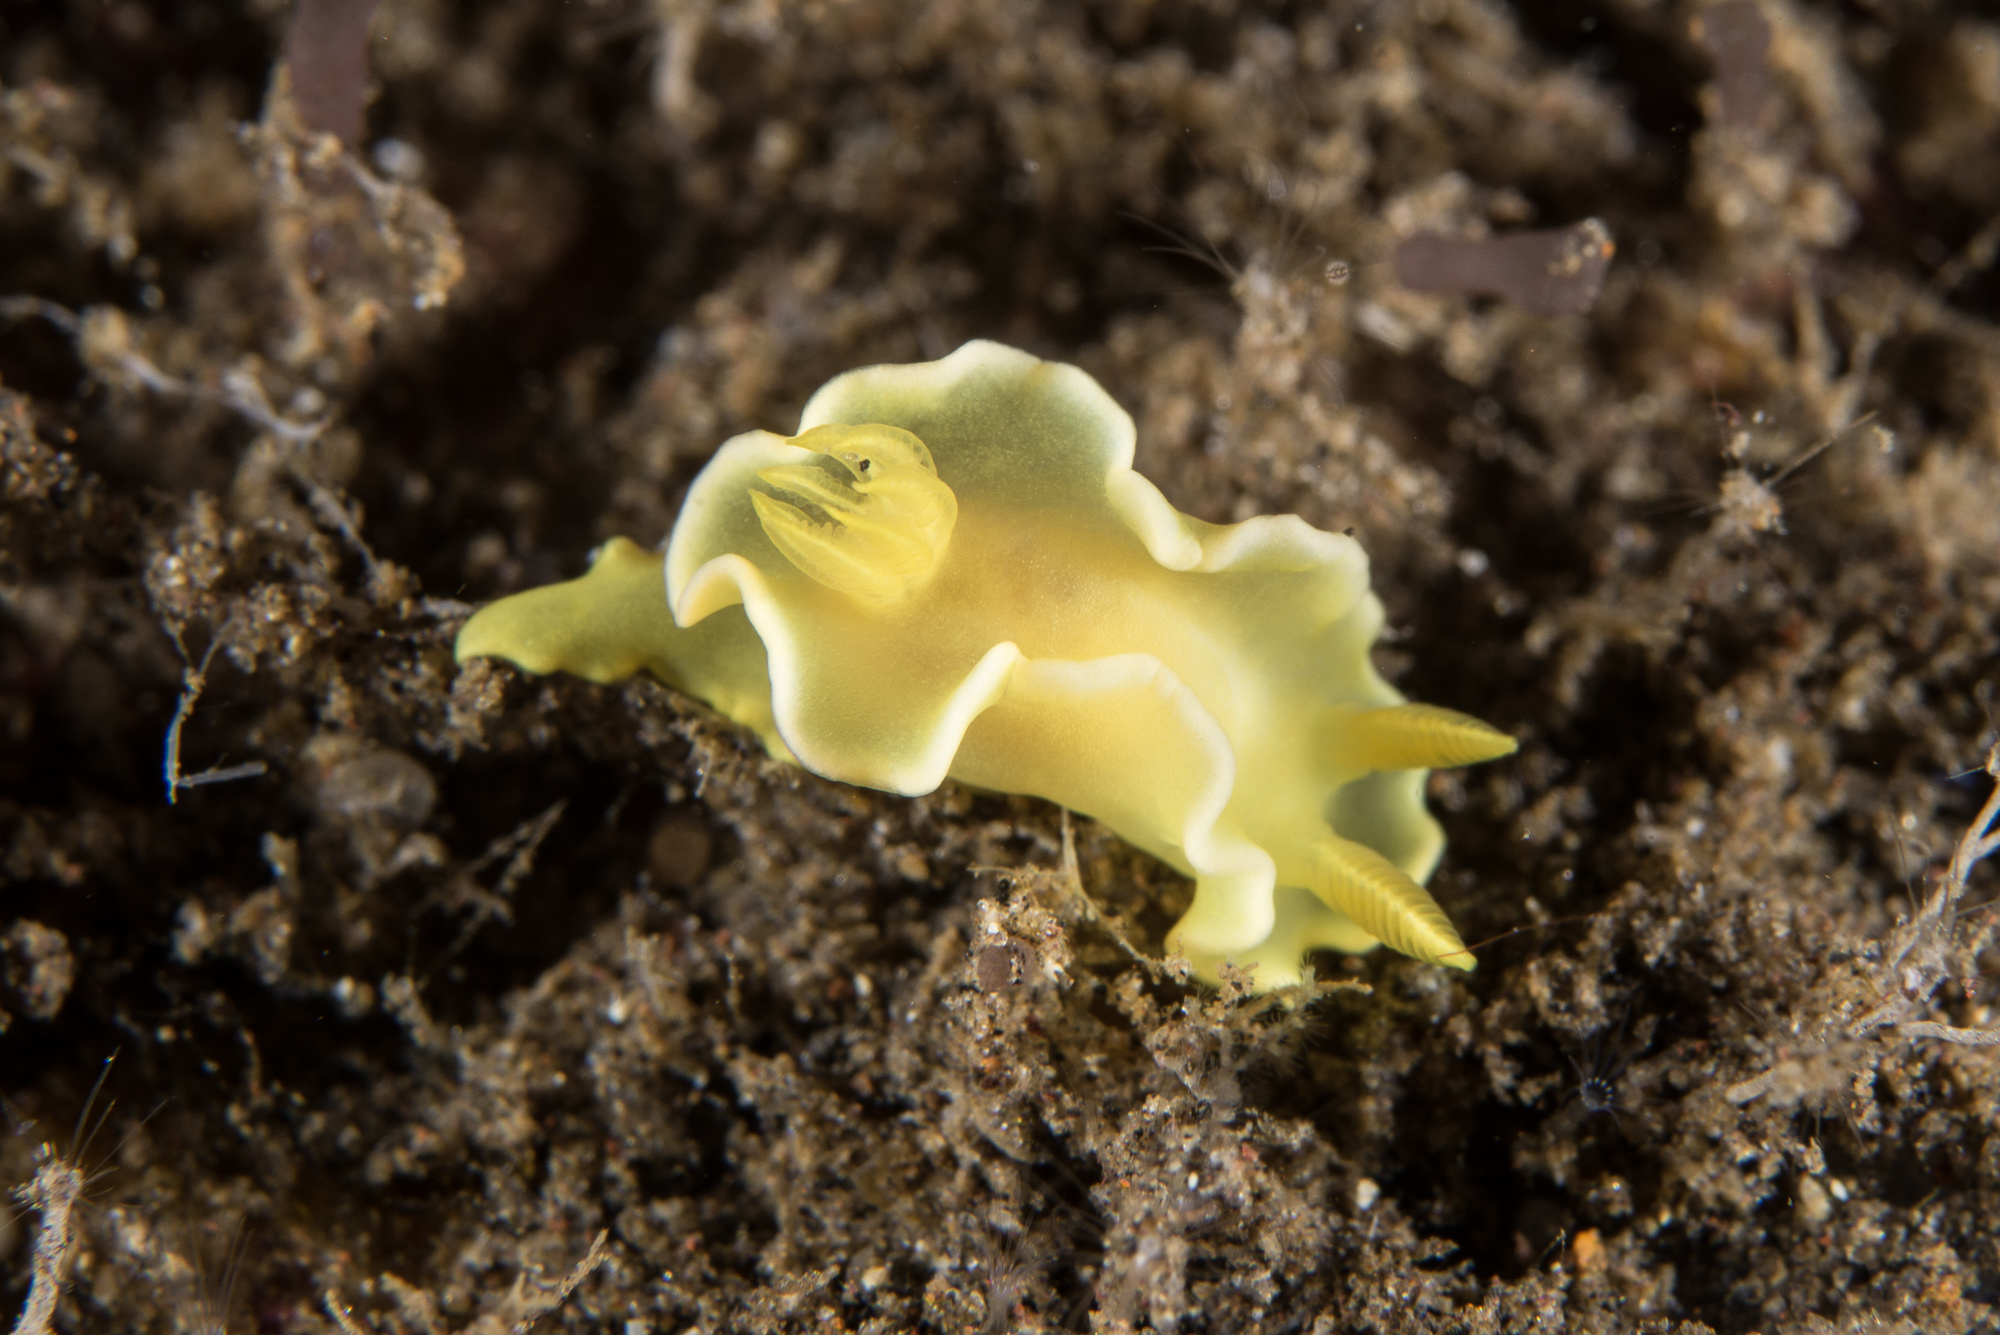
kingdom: Animalia
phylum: Mollusca
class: Gastropoda
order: Nudibranchia
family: Chromodorididae
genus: Diversidoris
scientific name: Diversidoris crocea
